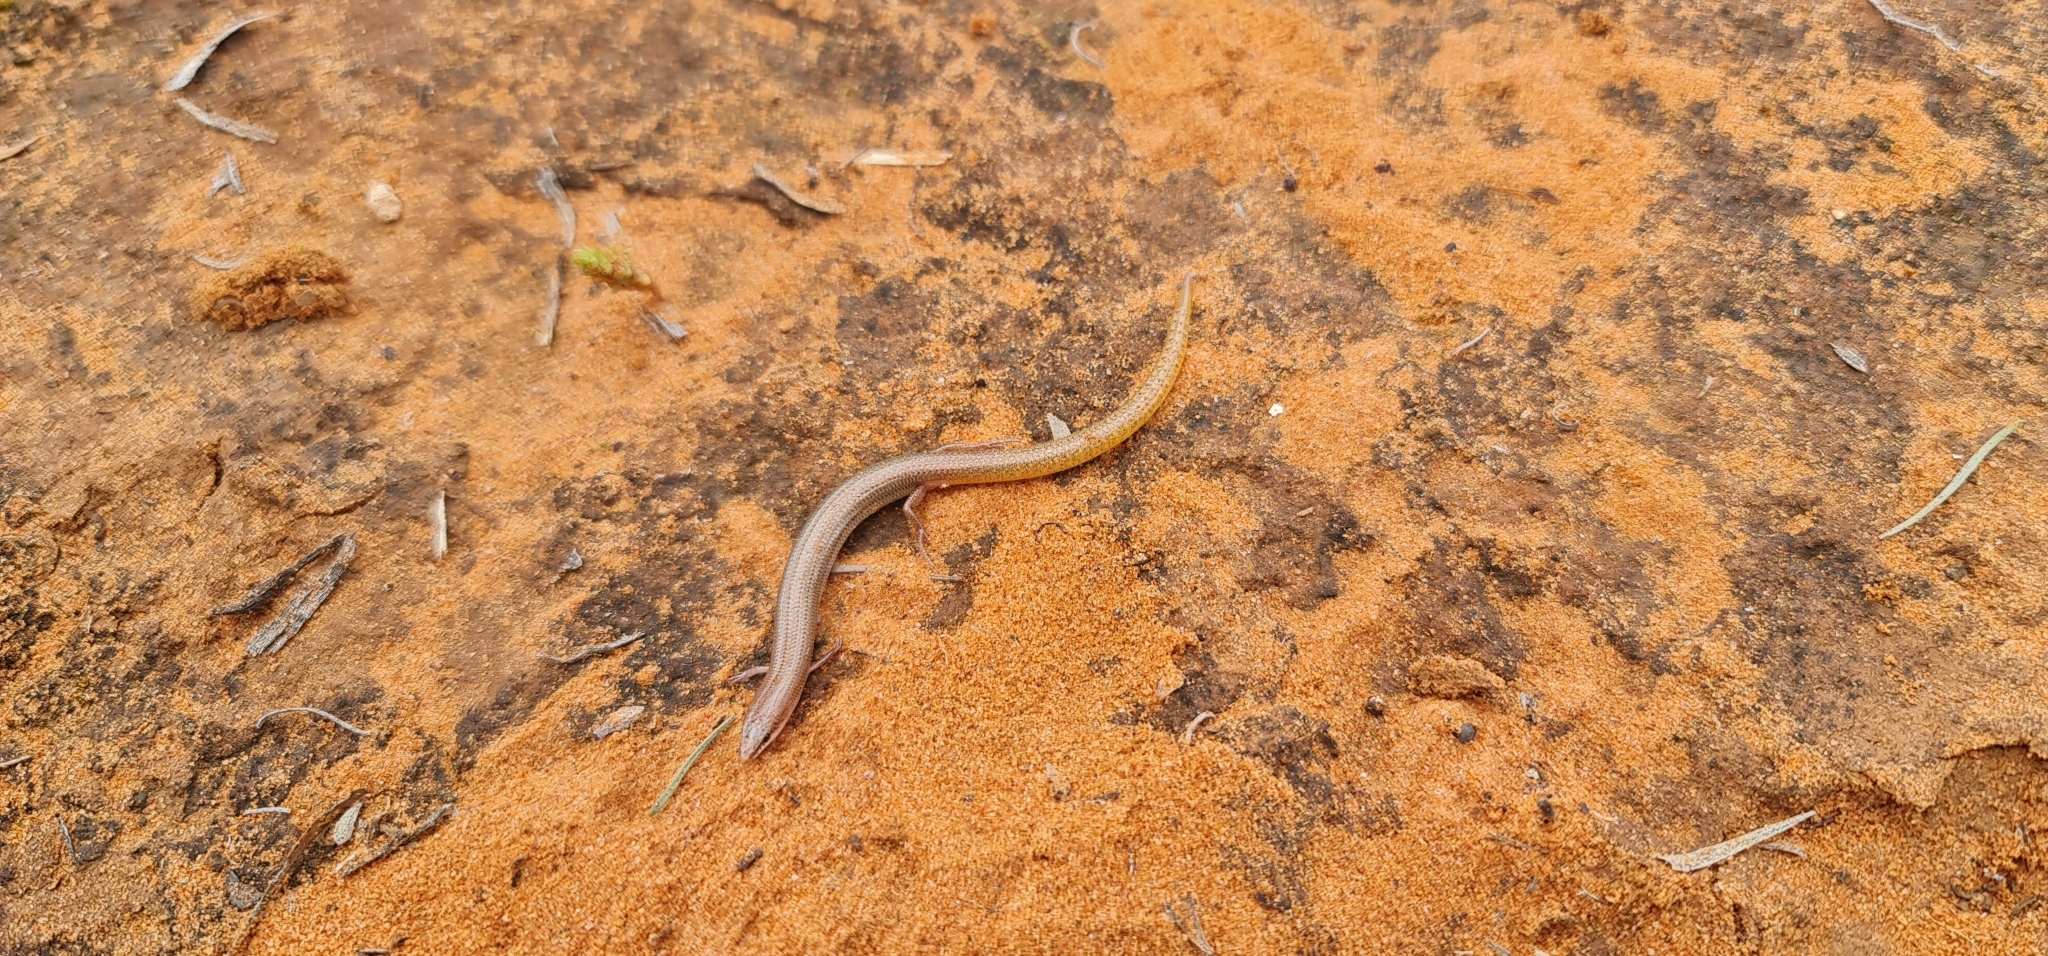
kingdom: Animalia
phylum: Chordata
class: Squamata
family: Scincidae
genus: Lerista
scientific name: Lerista aericeps
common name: Desert plain slider
